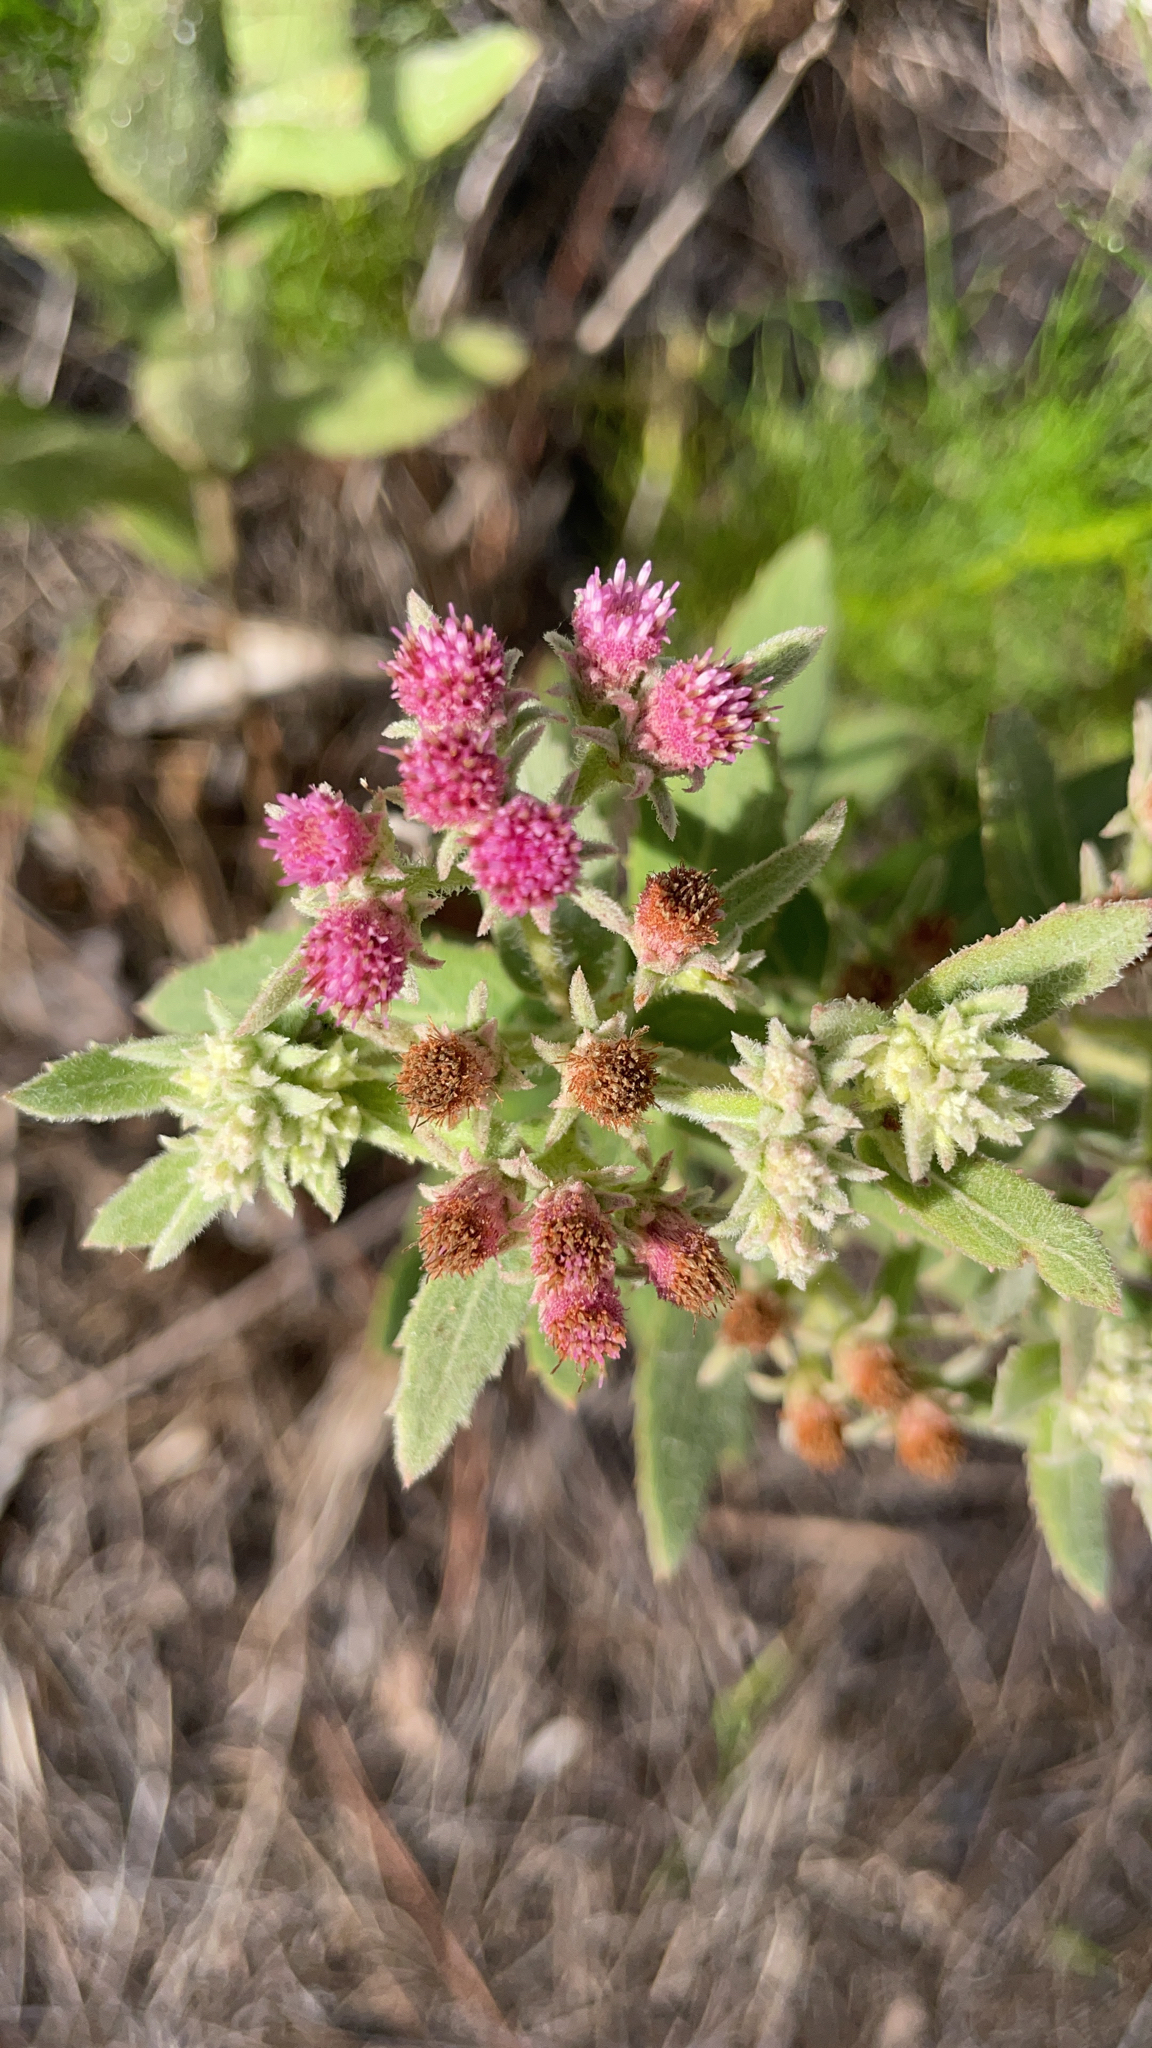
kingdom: Plantae
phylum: Tracheophyta
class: Magnoliopsida
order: Asterales
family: Asteraceae
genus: Pluchea
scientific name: Pluchea baccharis
